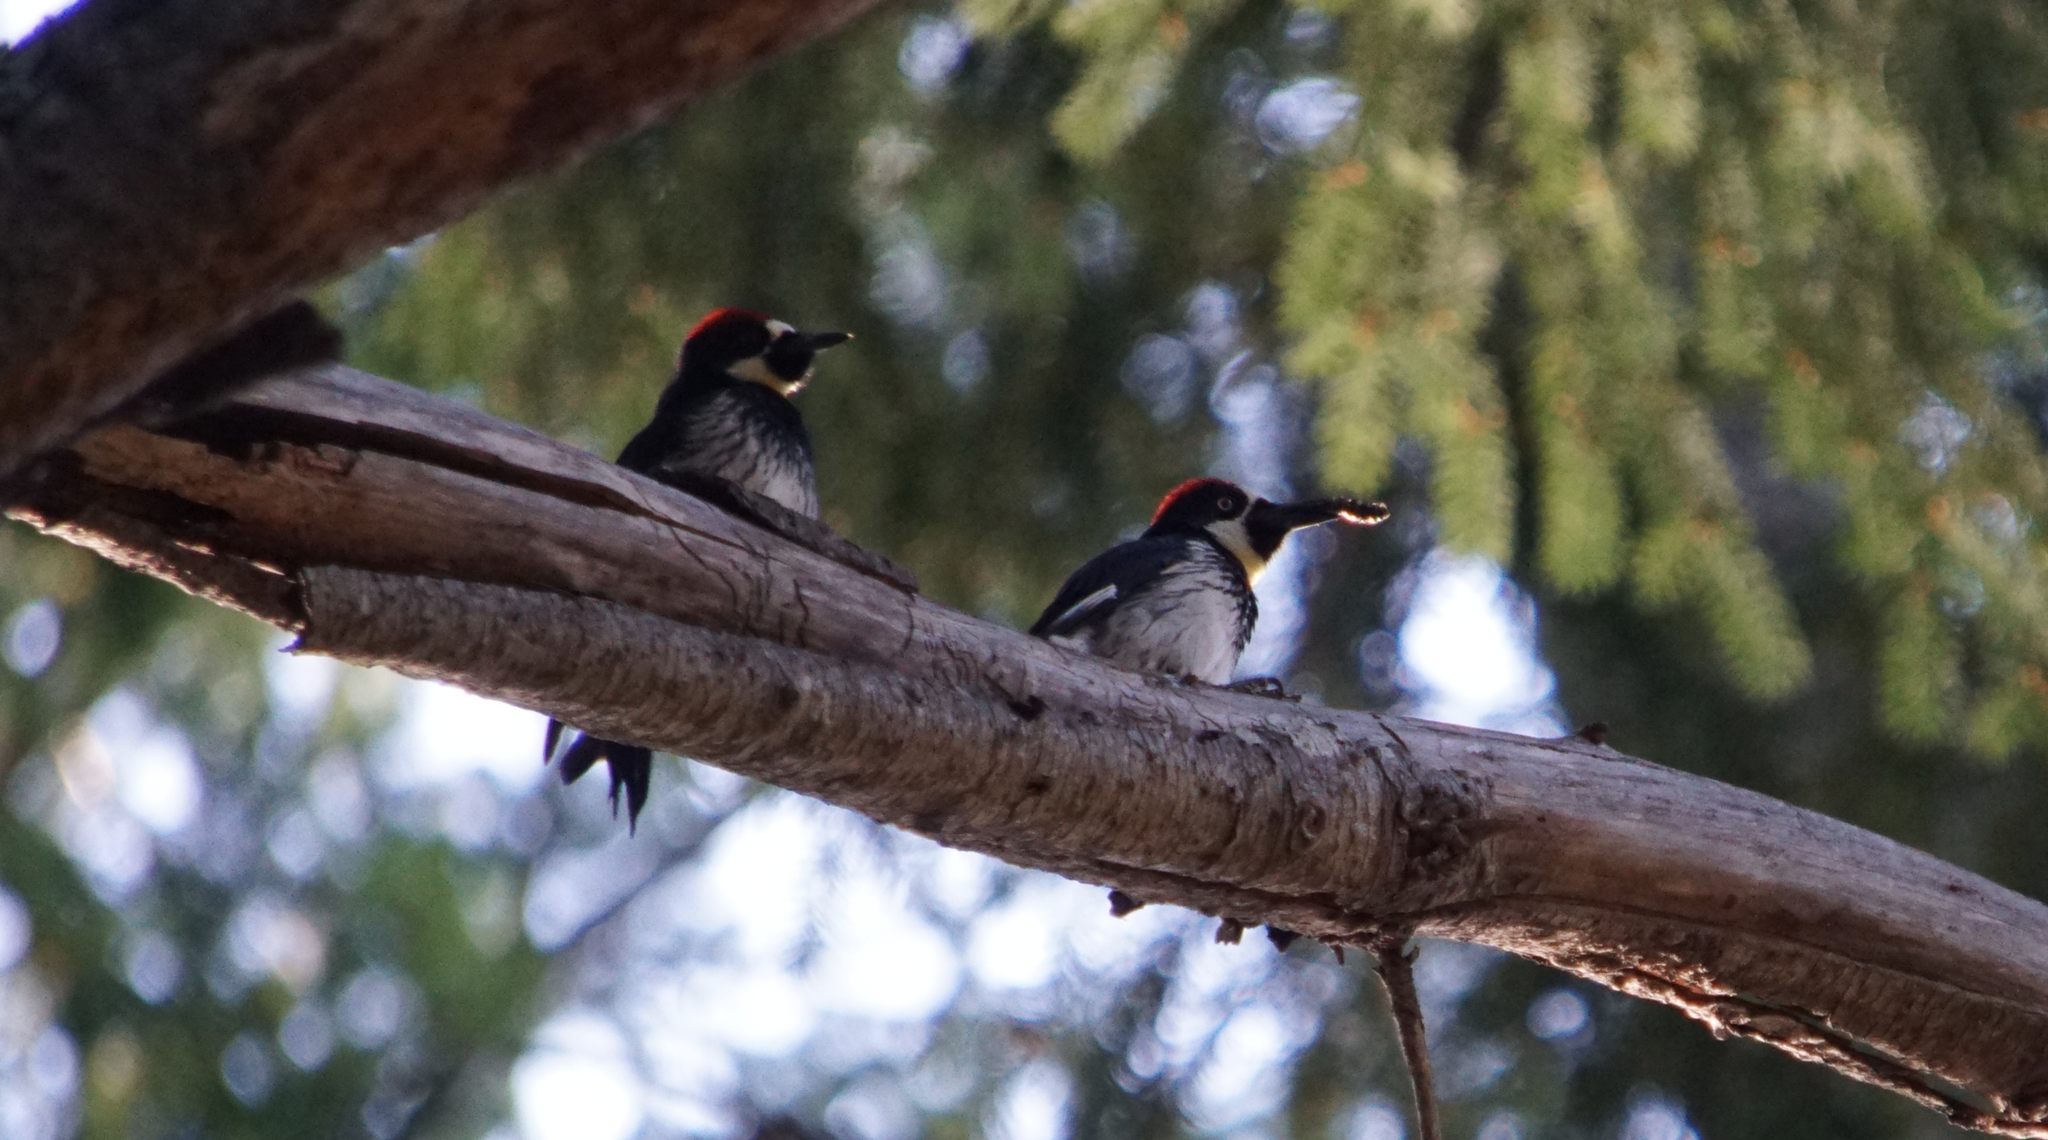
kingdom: Animalia
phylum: Chordata
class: Aves
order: Piciformes
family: Picidae
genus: Melanerpes
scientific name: Melanerpes formicivorus
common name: Acorn woodpecker
